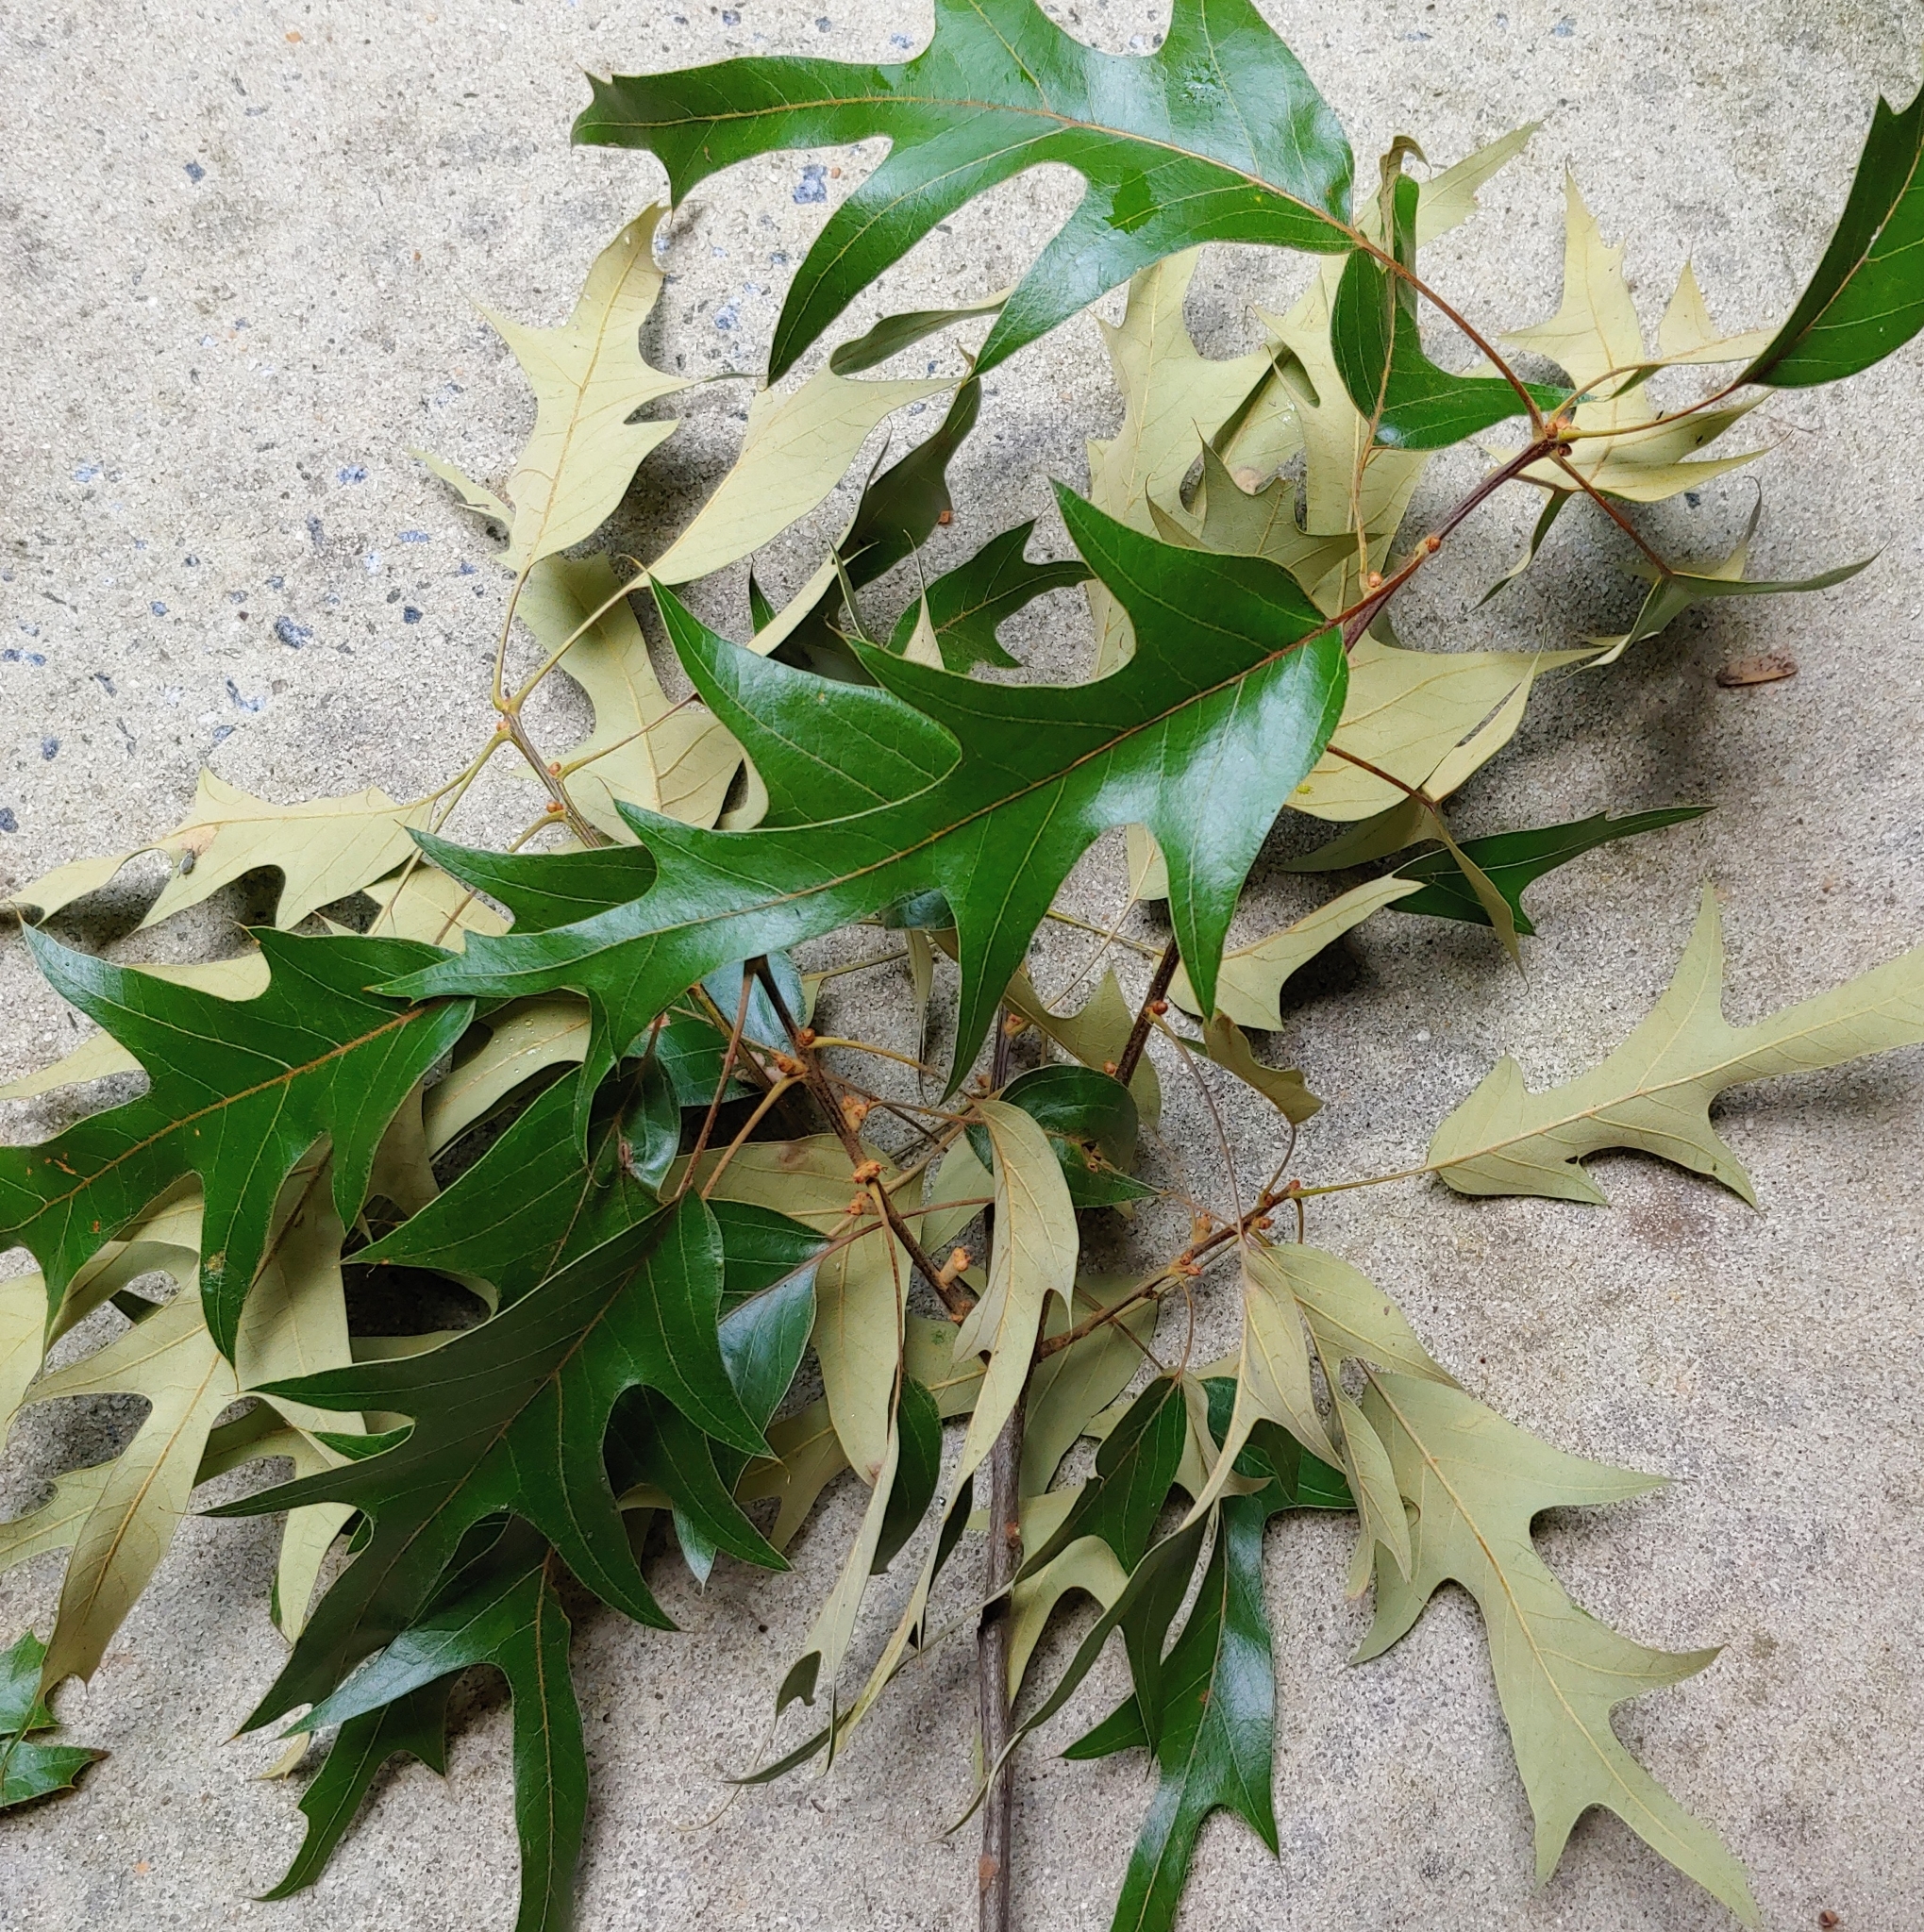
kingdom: Plantae
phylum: Tracheophyta
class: Magnoliopsida
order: Fagales
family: Fagaceae
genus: Quercus
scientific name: Quercus falcata
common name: Southern red oak
